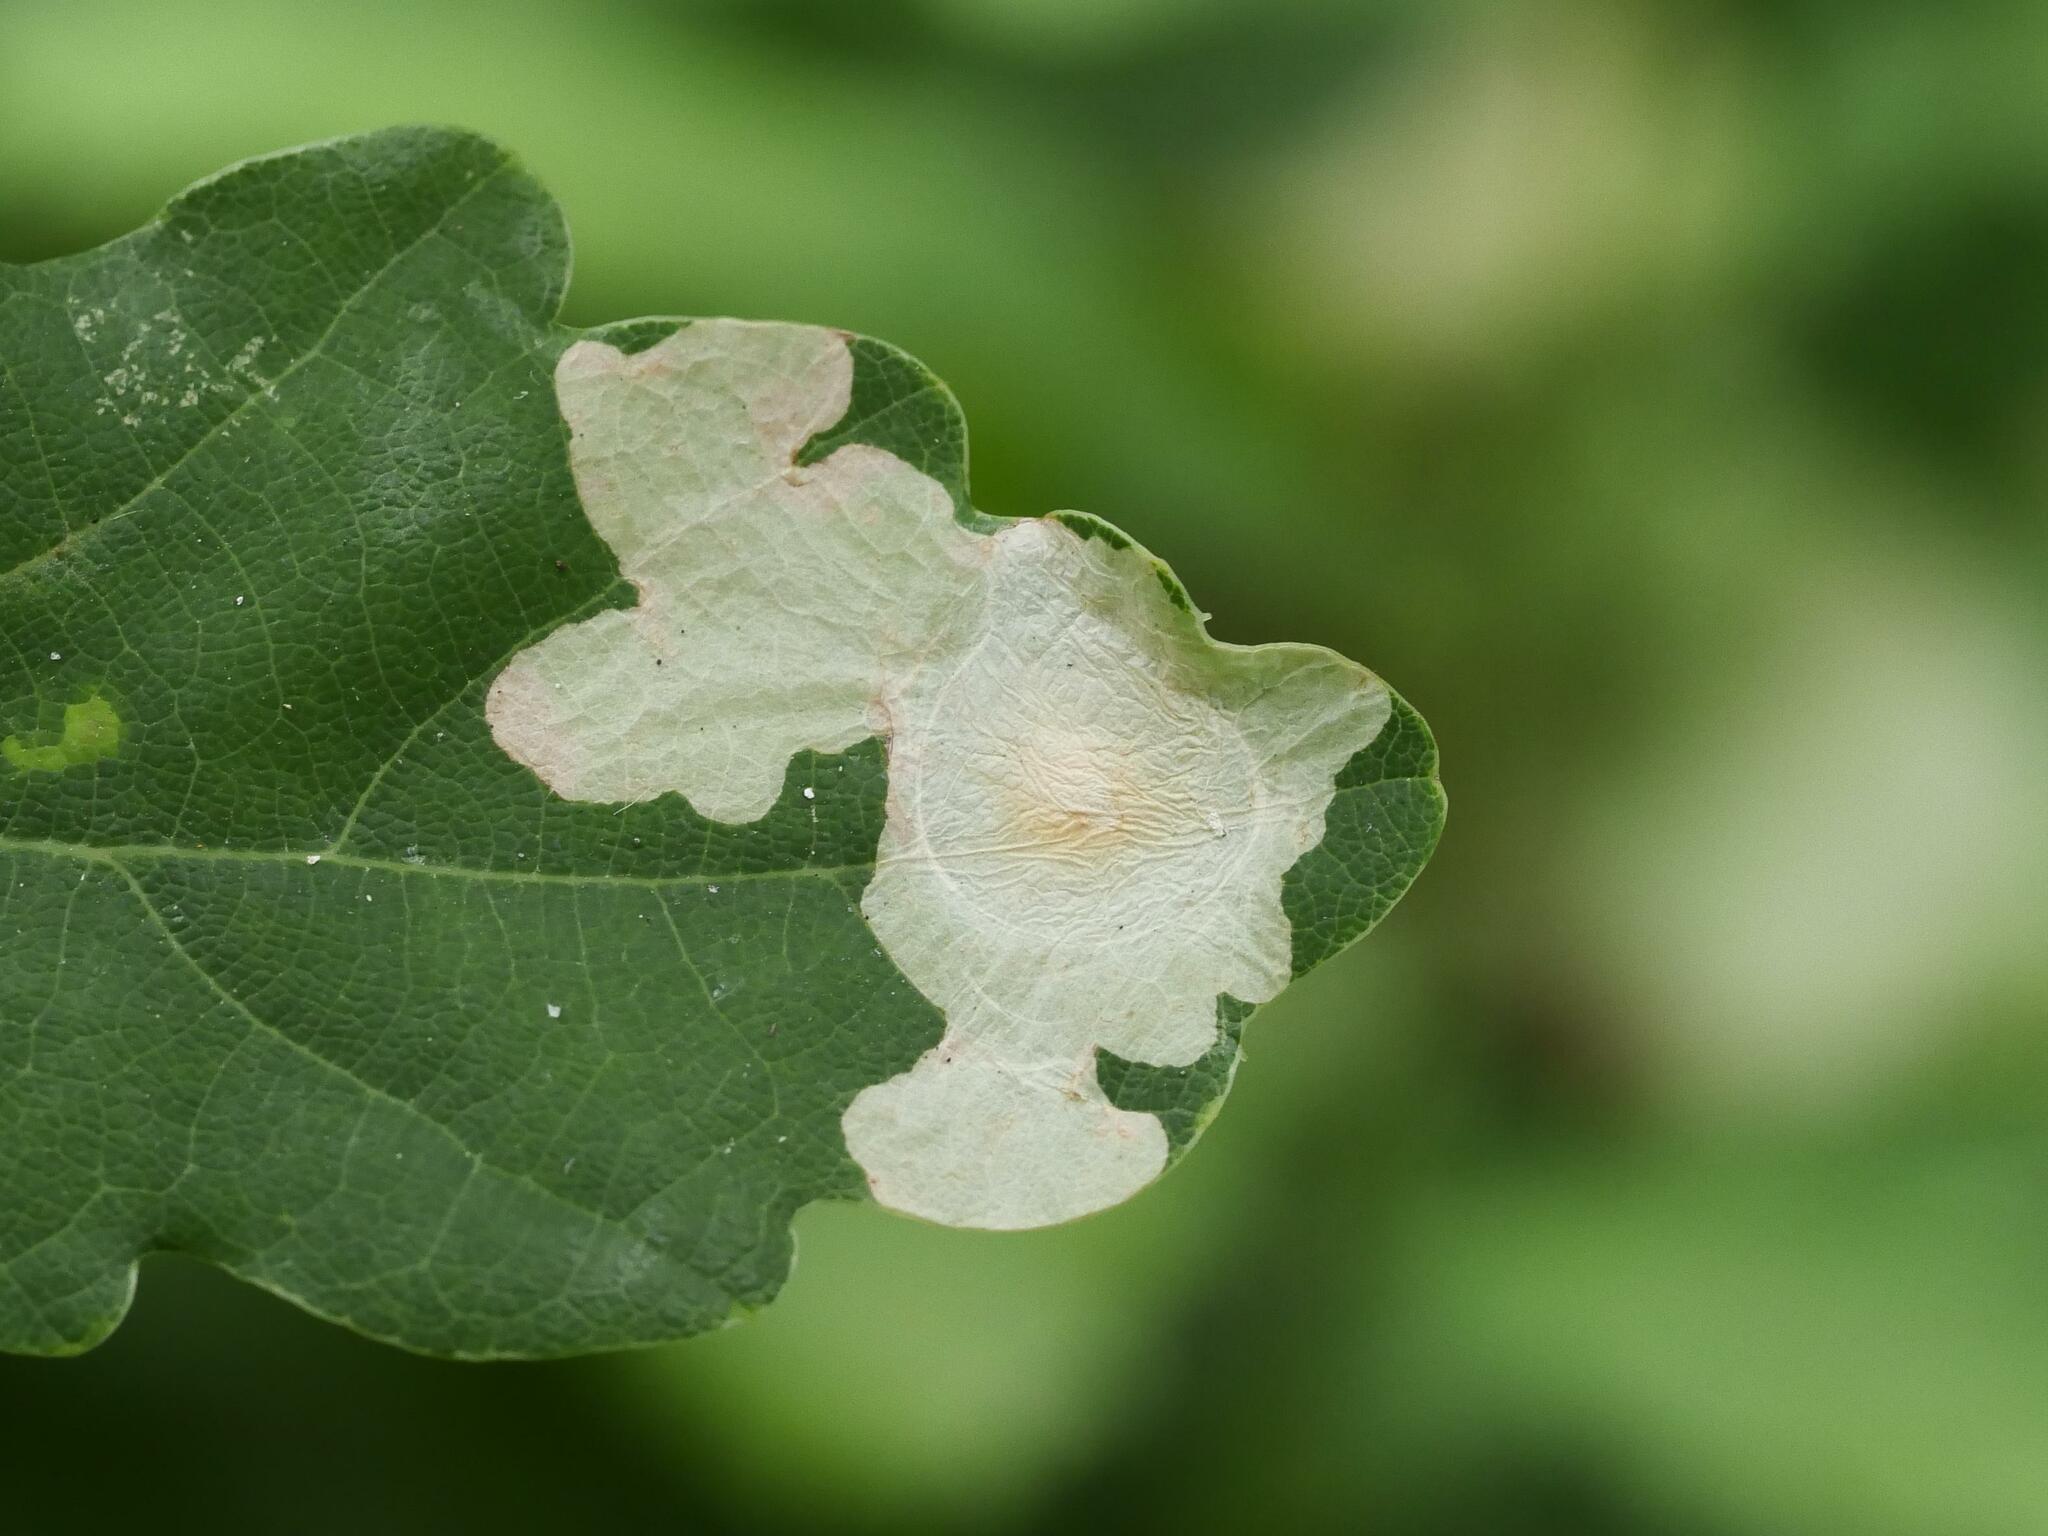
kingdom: Animalia
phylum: Arthropoda
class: Insecta
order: Lepidoptera
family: Tischeriidae
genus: Tischeria
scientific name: Tischeria ekebladella
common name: Oak carl
